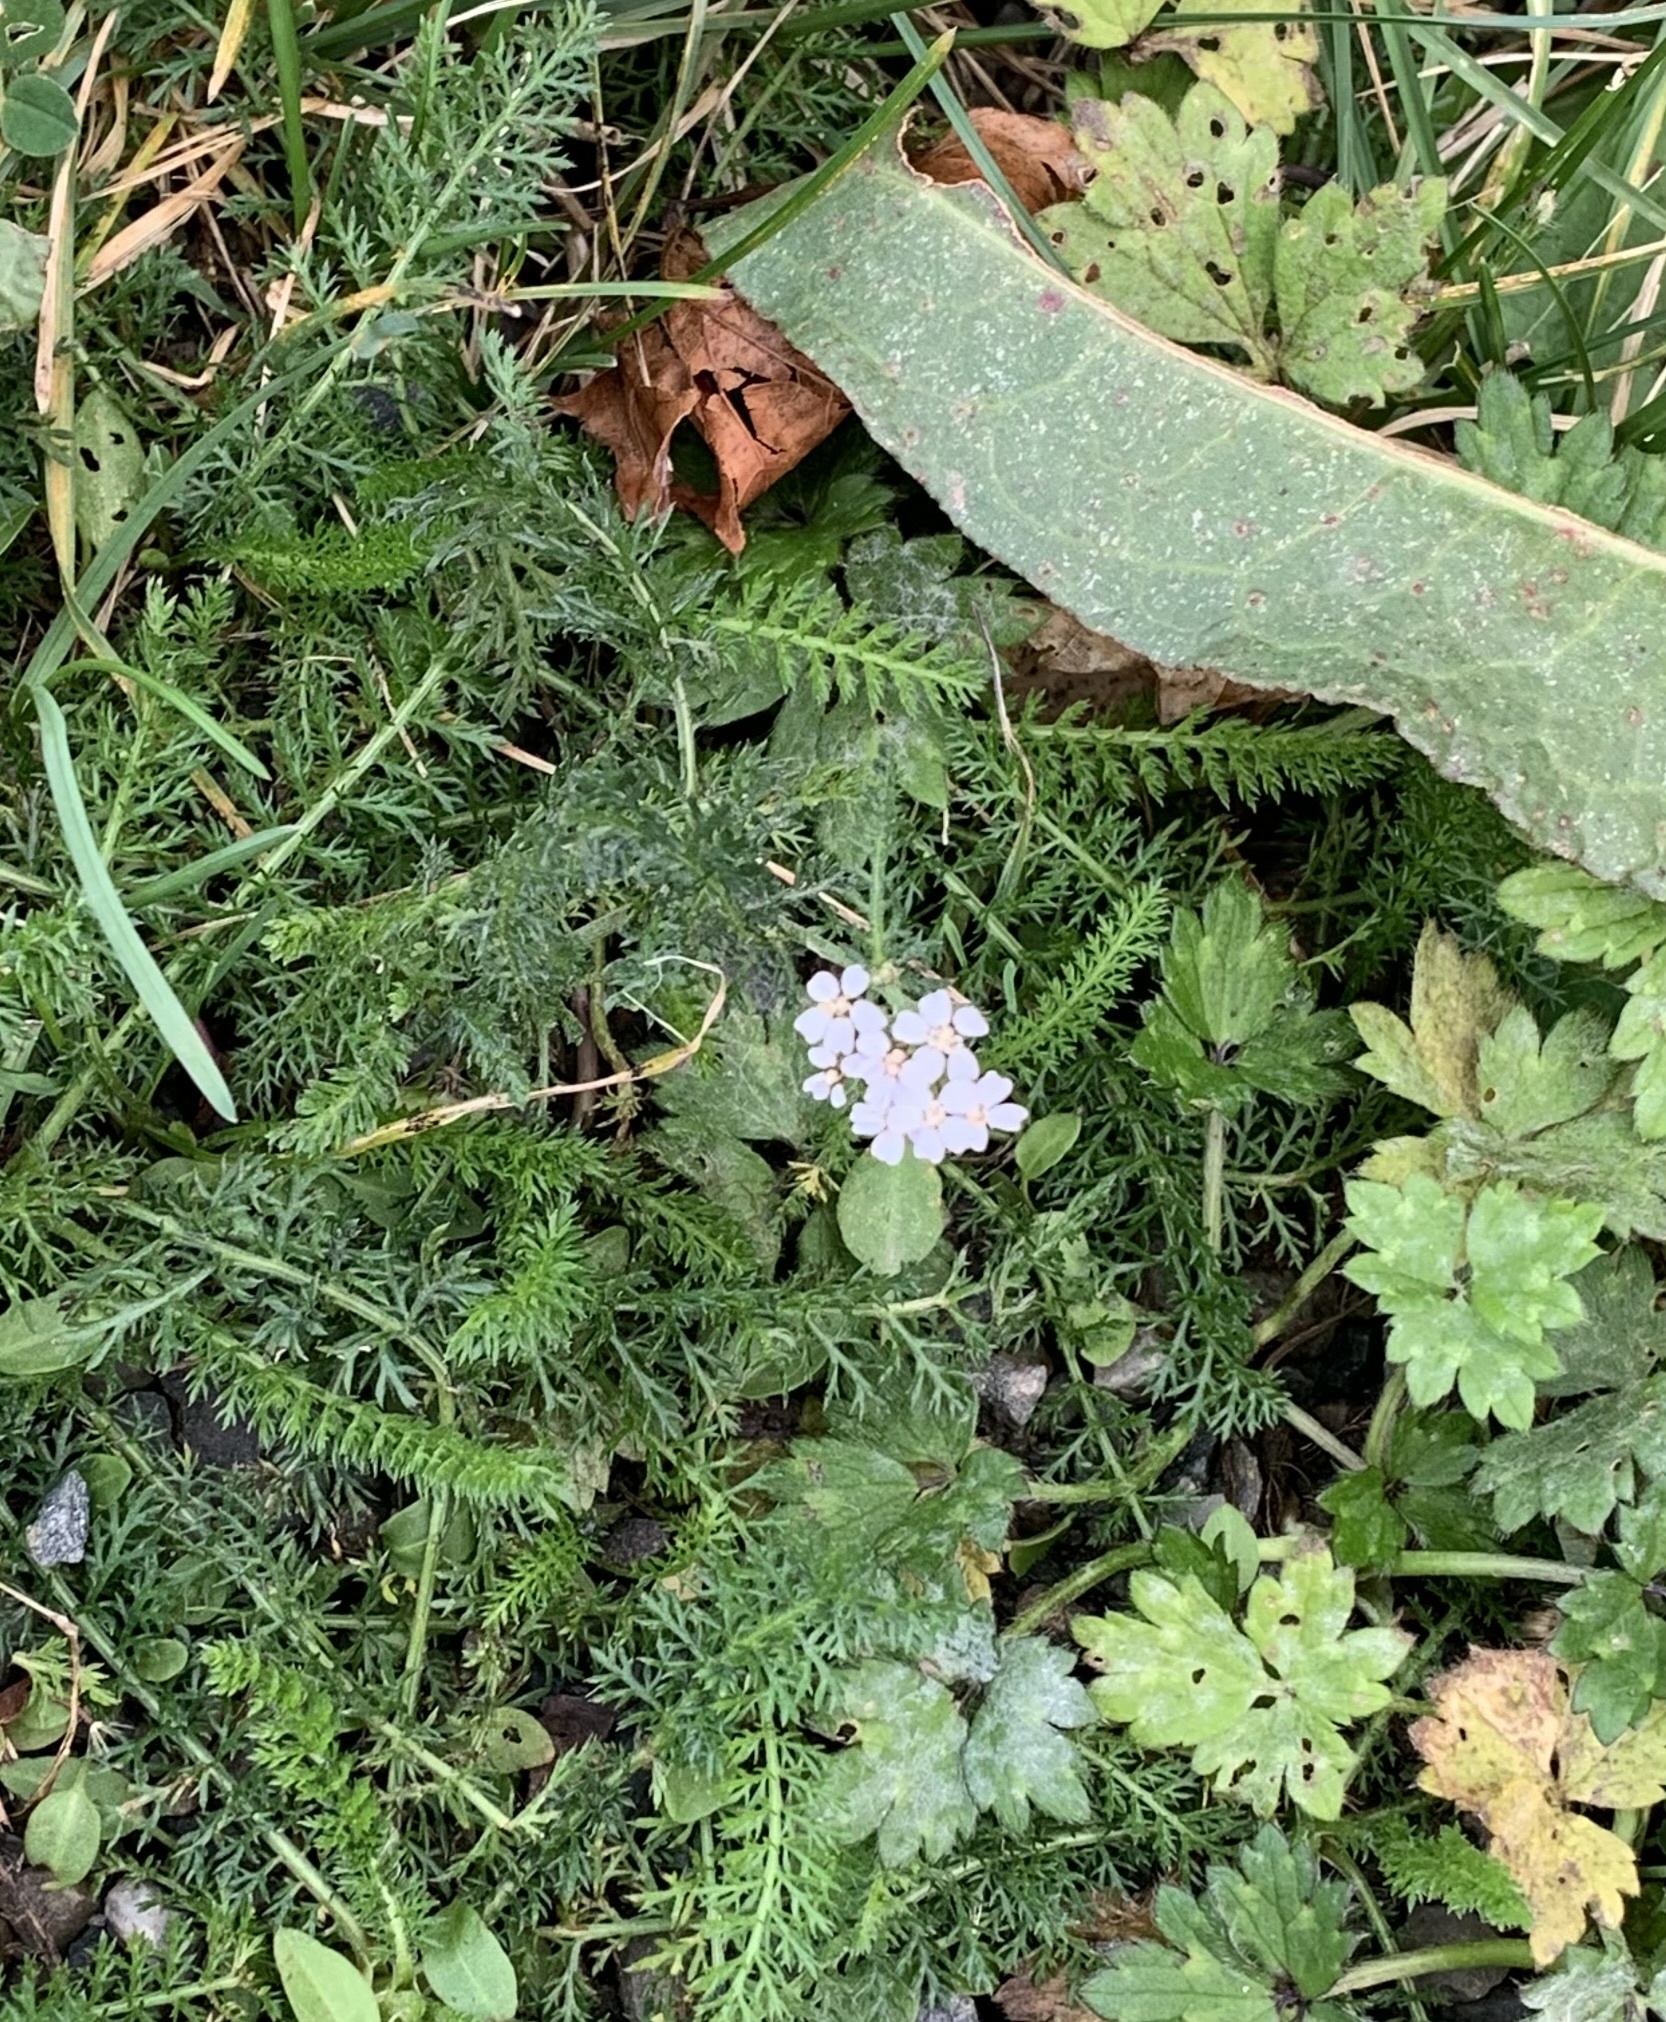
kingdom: Plantae
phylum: Tracheophyta
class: Magnoliopsida
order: Asterales
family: Asteraceae
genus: Achillea
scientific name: Achillea millefolium
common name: Yarrow
